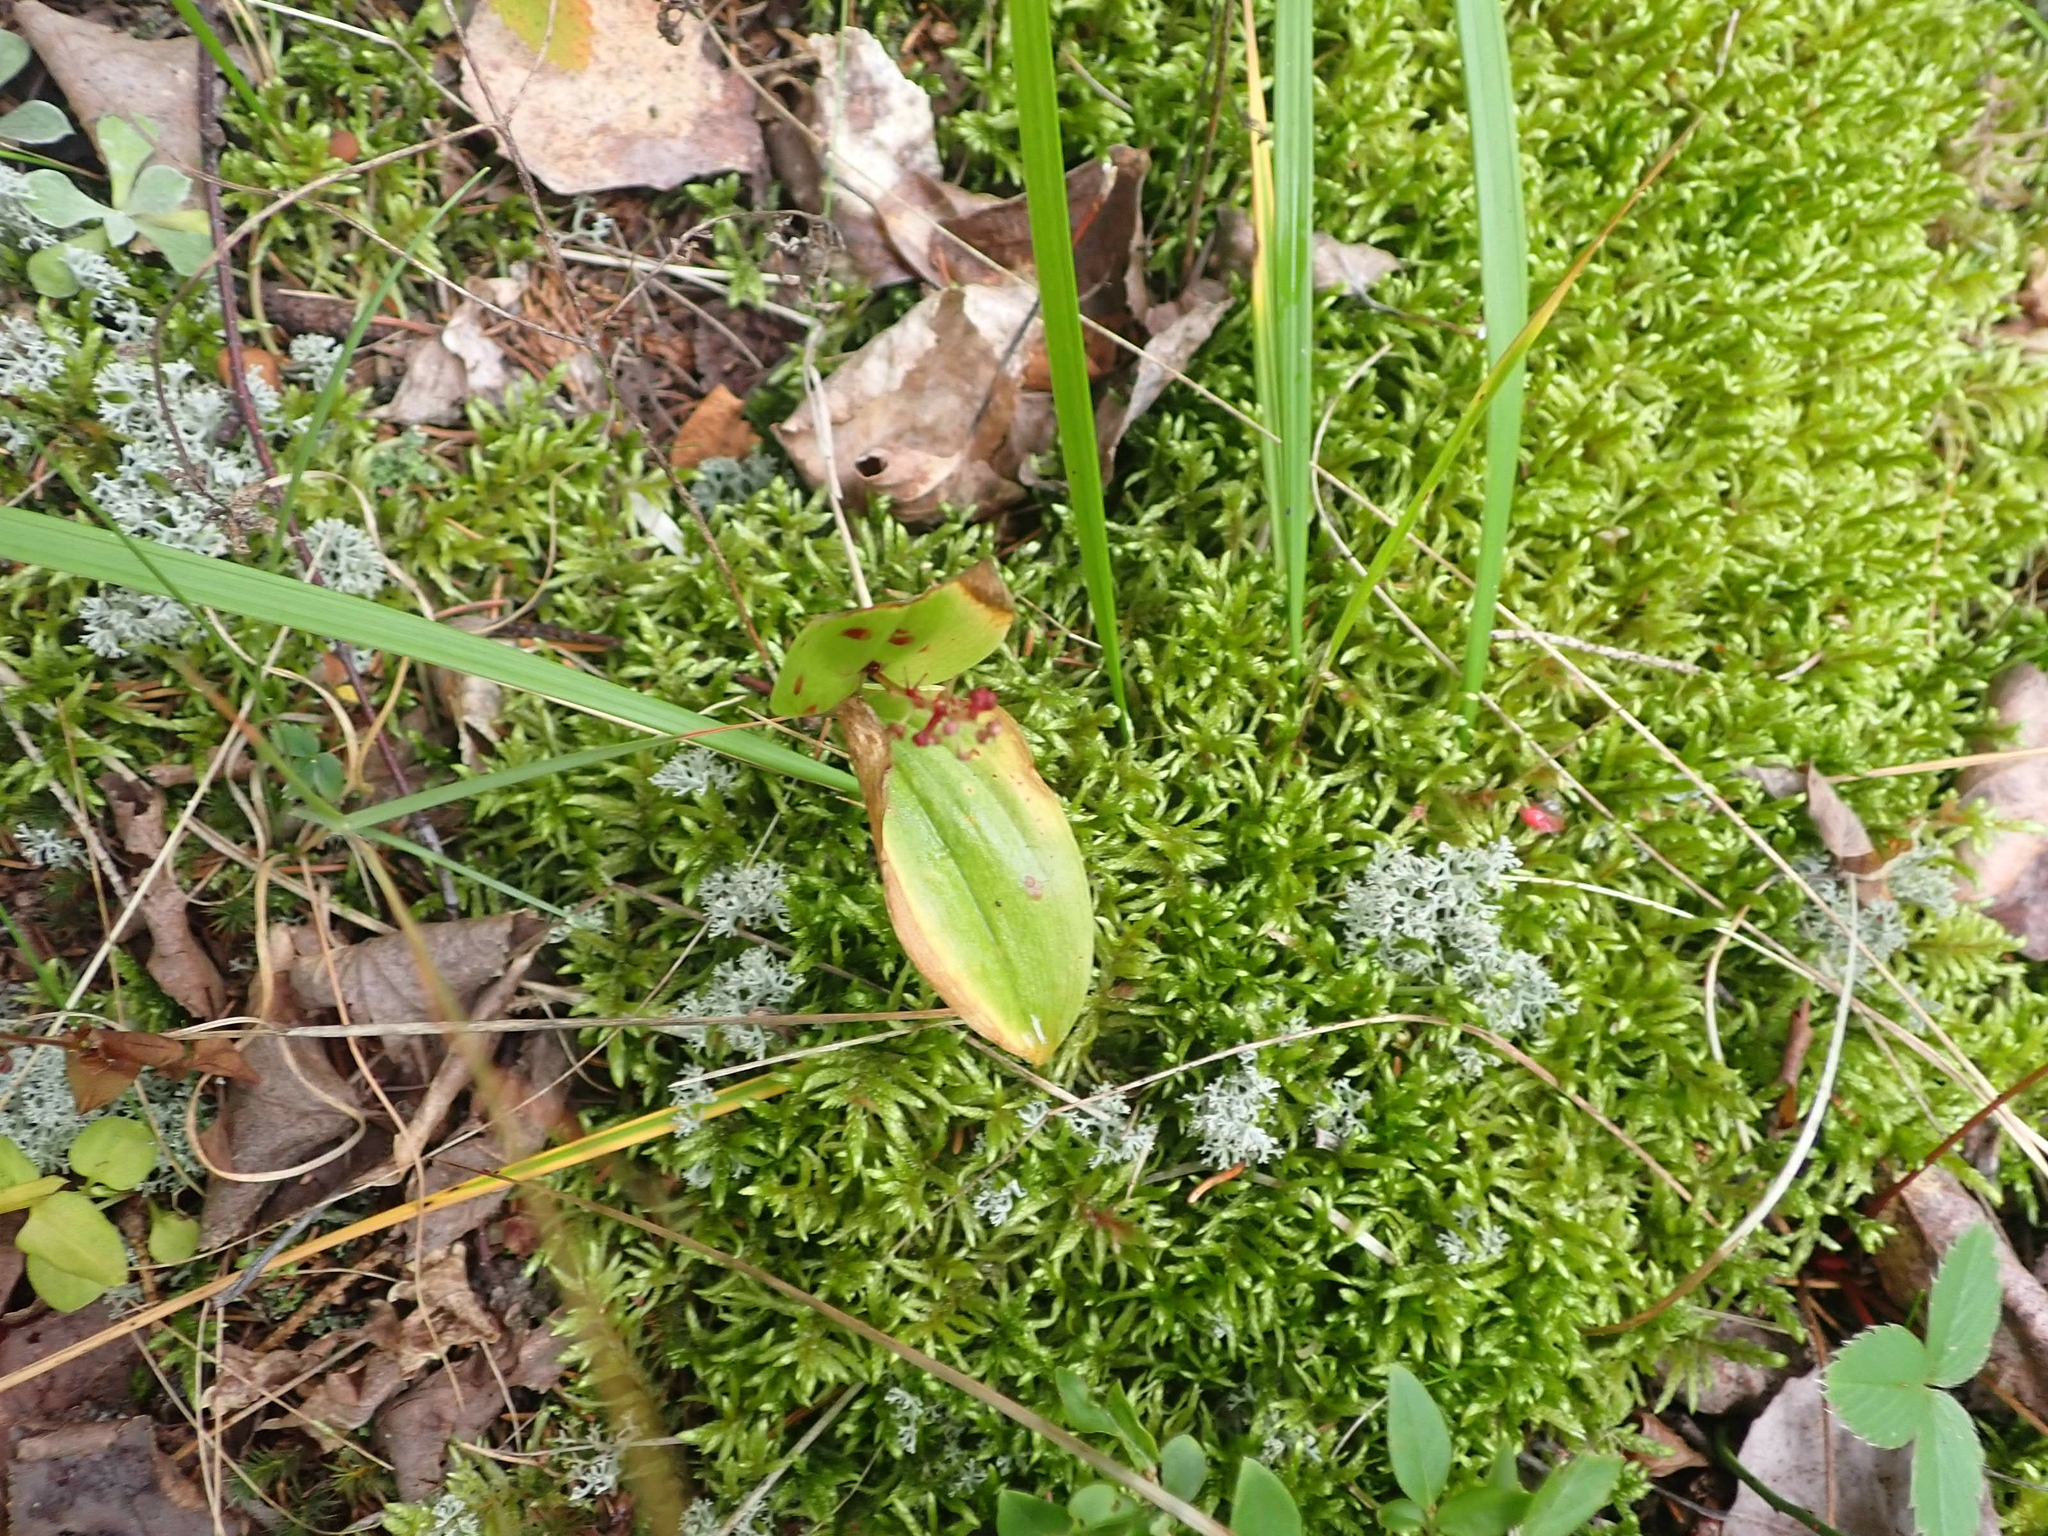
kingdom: Plantae
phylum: Tracheophyta
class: Liliopsida
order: Asparagales
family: Asparagaceae
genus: Maianthemum
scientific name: Maianthemum canadense
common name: False lily-of-the-valley
